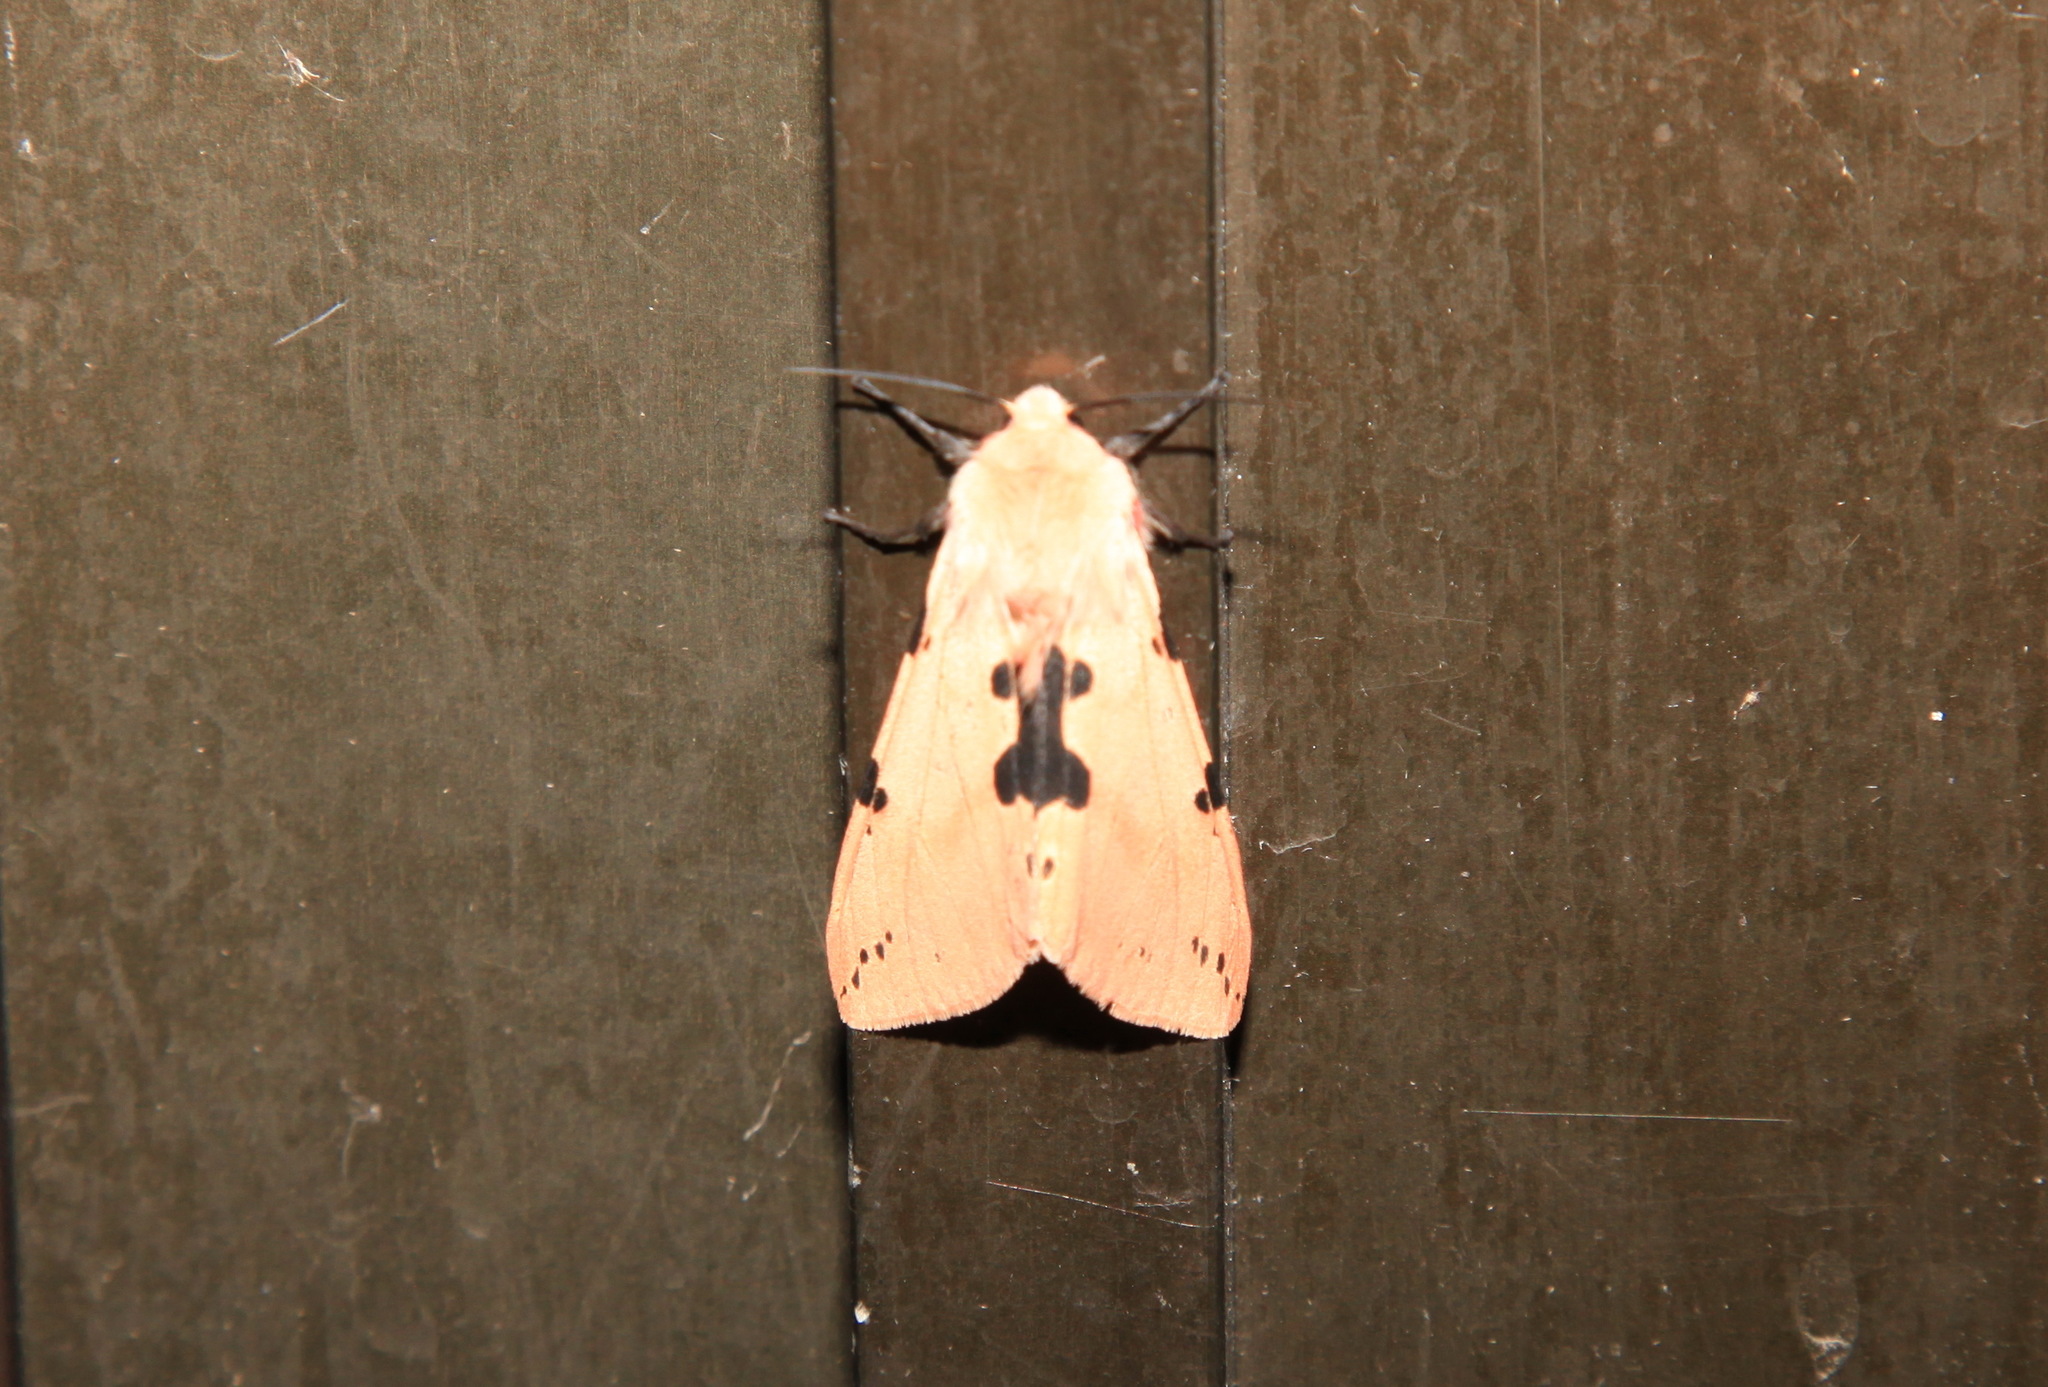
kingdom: Animalia
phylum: Arthropoda
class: Insecta
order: Lepidoptera
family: Erebidae
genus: Spilarctia
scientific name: Spilarctia clava
